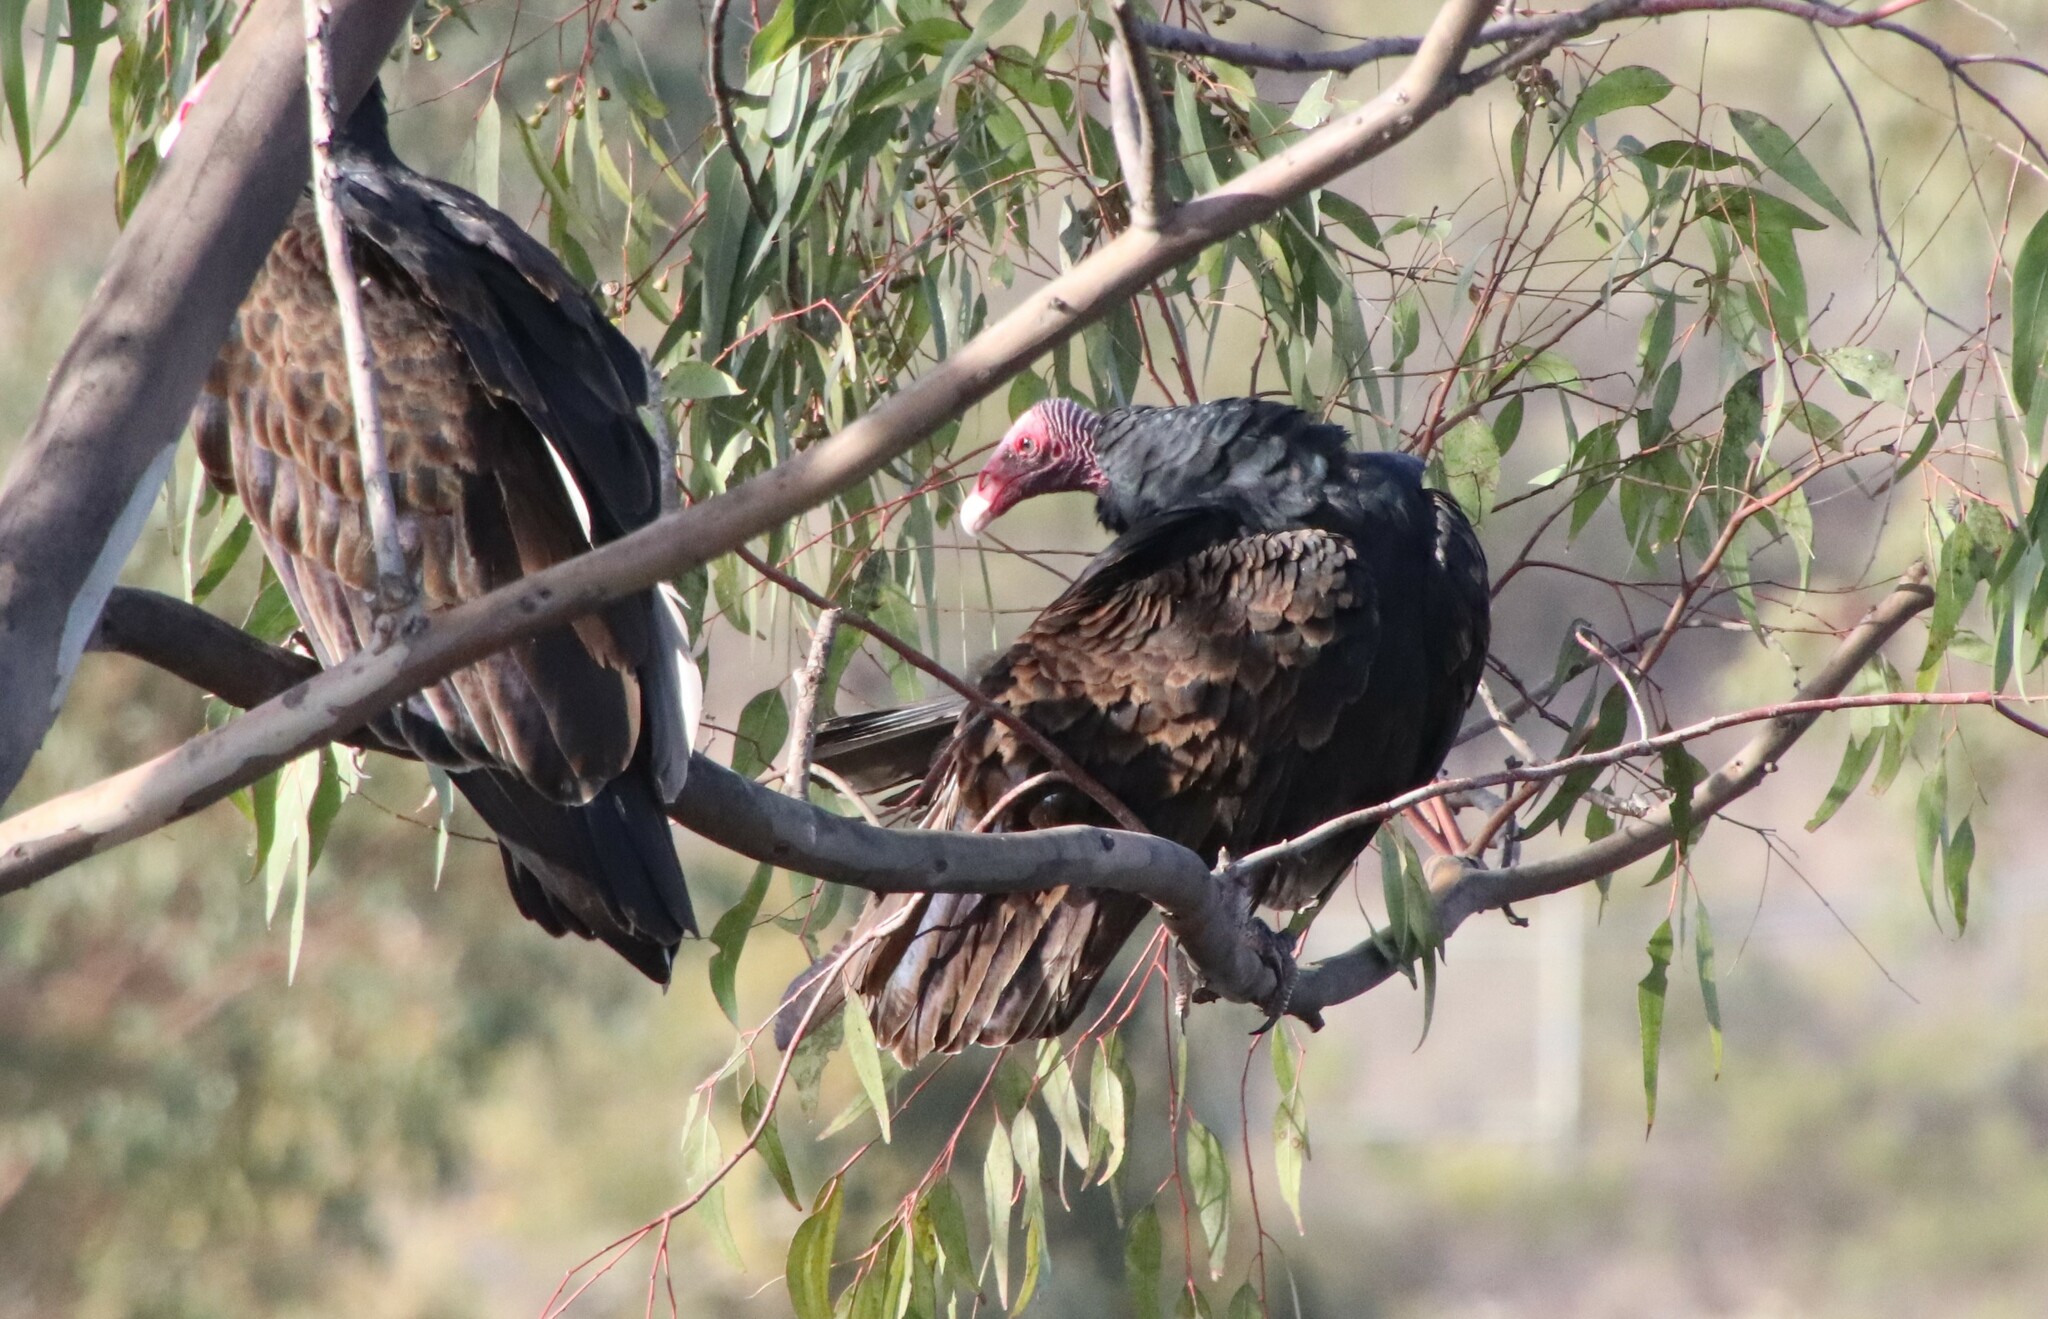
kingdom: Animalia
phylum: Chordata
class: Aves
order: Accipitriformes
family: Cathartidae
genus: Cathartes
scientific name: Cathartes aura
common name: Turkey vulture
